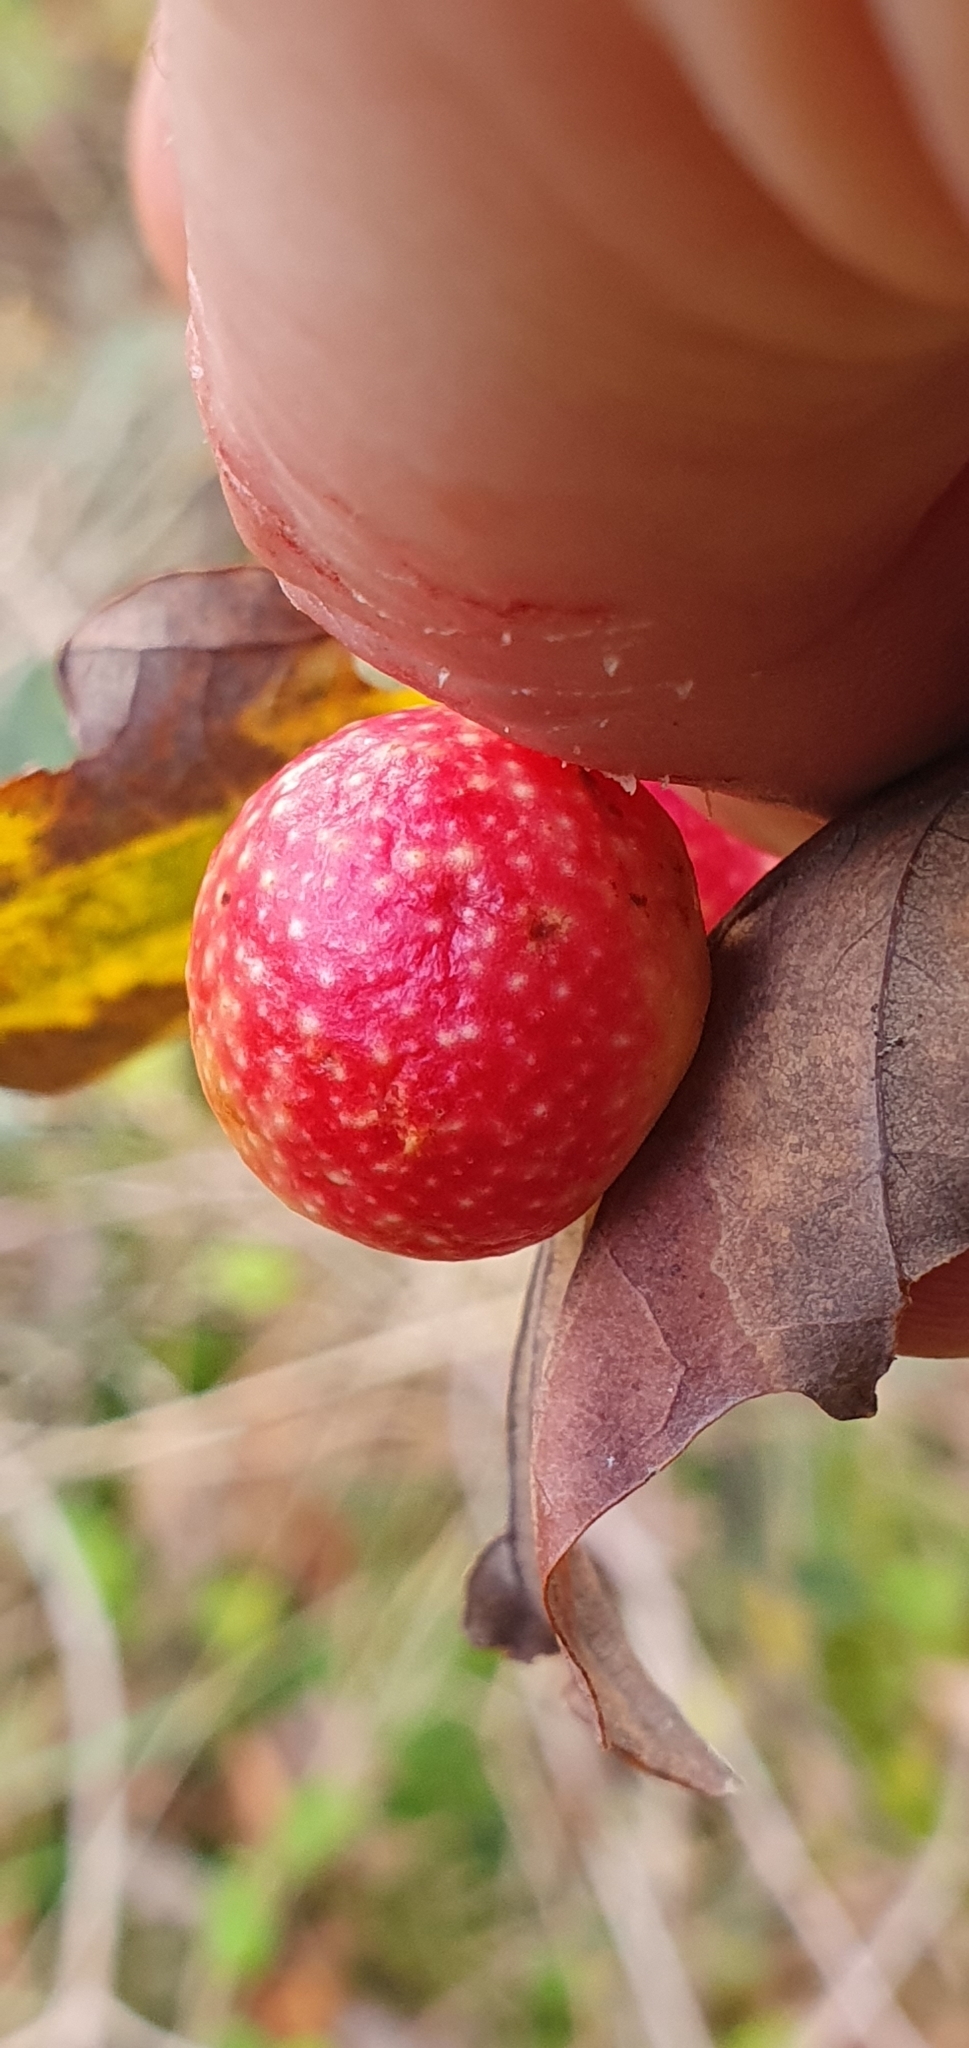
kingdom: Animalia
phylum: Arthropoda
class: Insecta
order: Hymenoptera
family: Cynipidae
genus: Cynips
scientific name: Cynips quercusfolii
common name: Cherry gall
